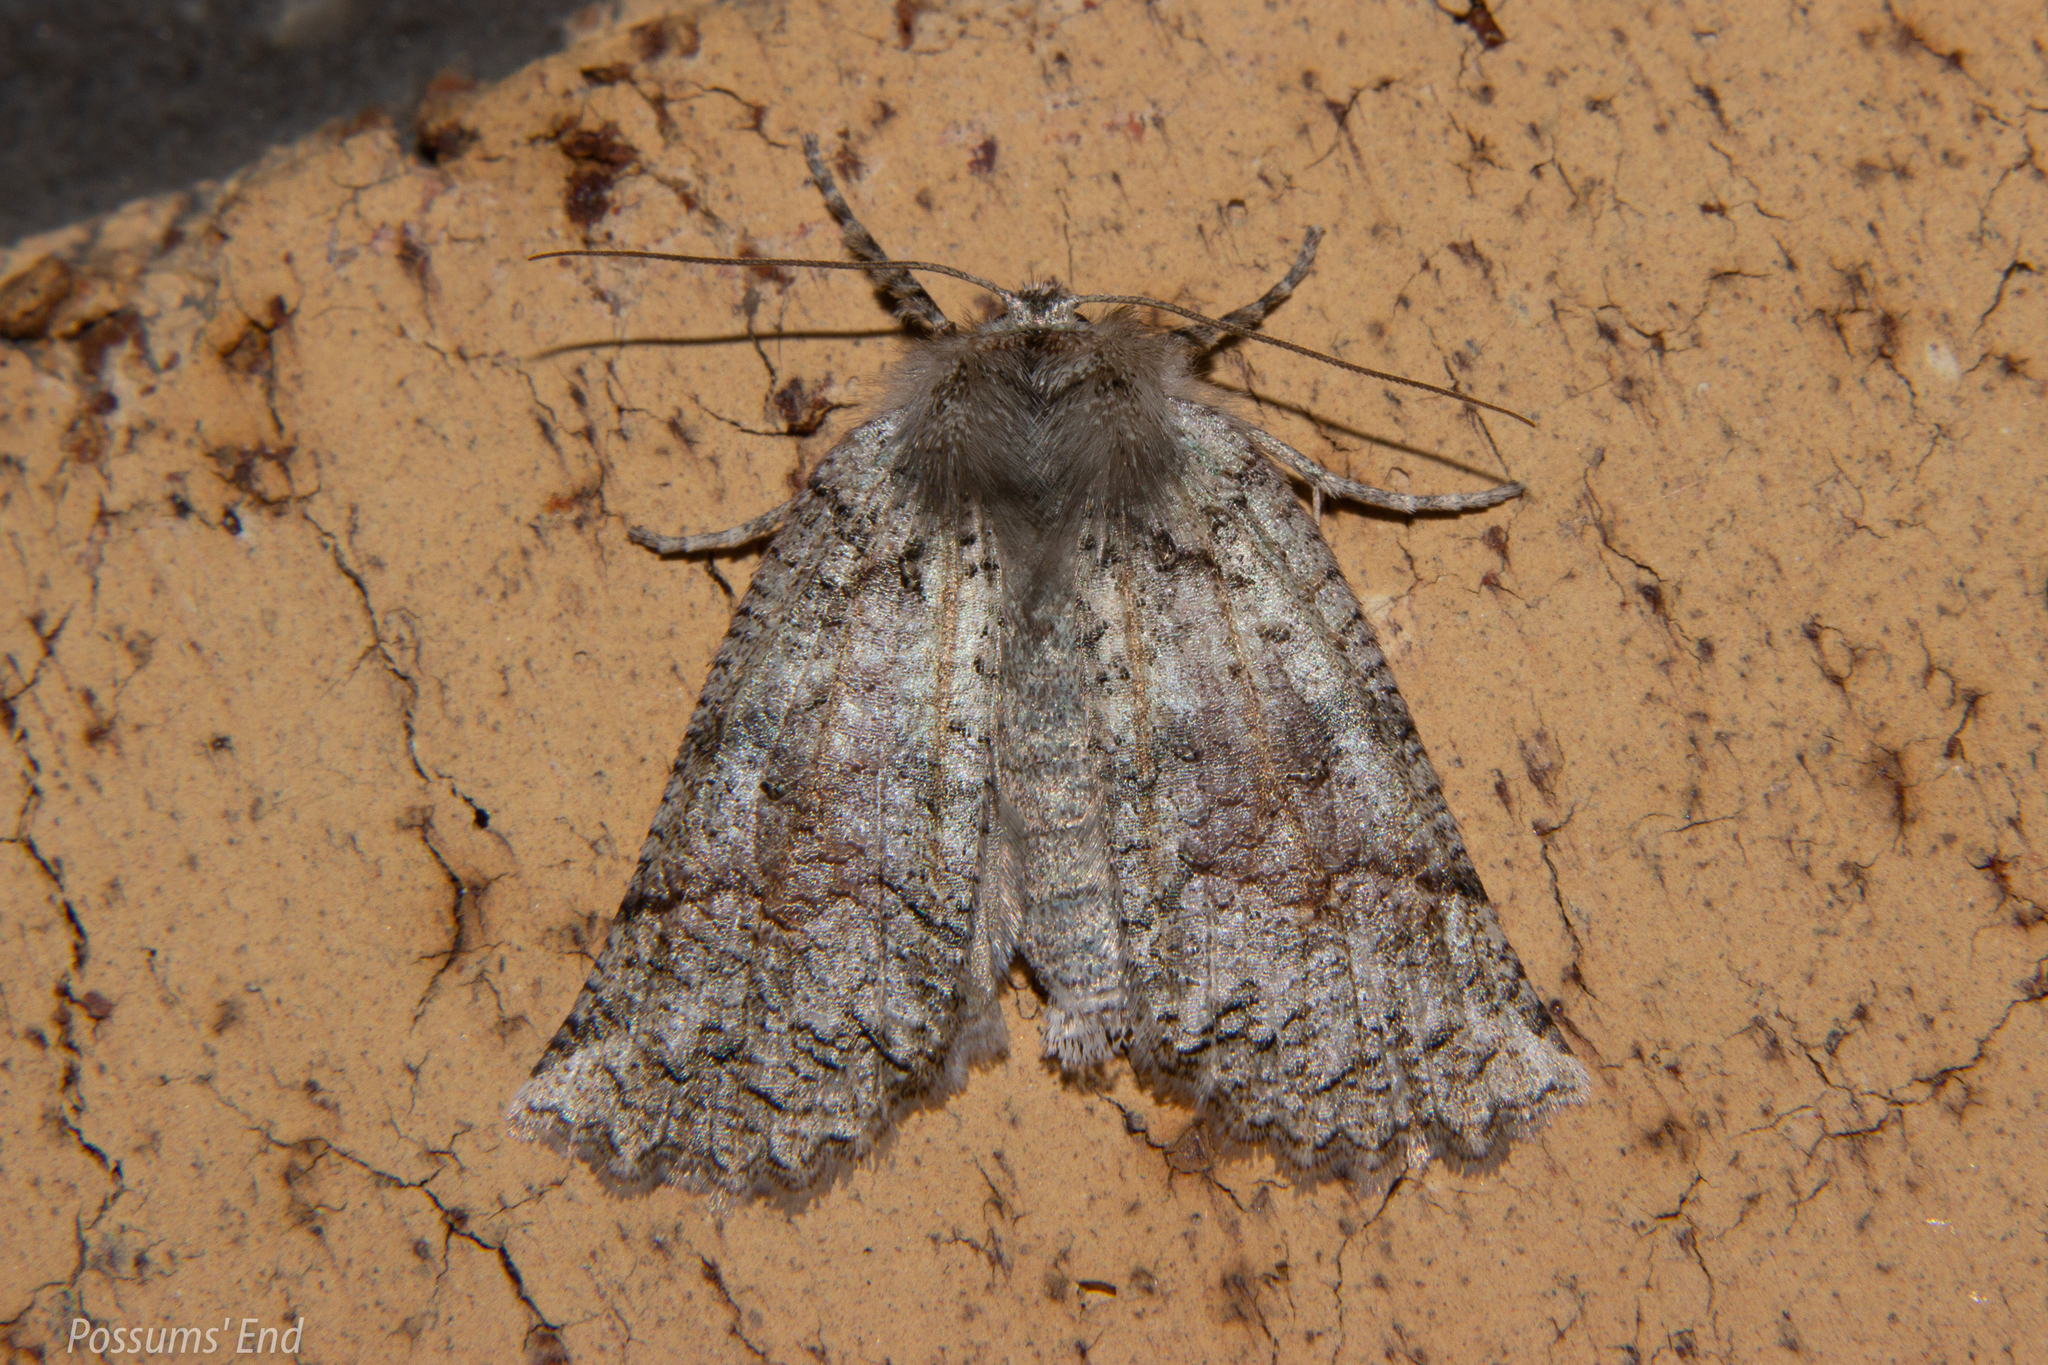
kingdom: Animalia
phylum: Arthropoda
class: Insecta
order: Lepidoptera
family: Geometridae
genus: Declana
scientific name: Declana floccosa
